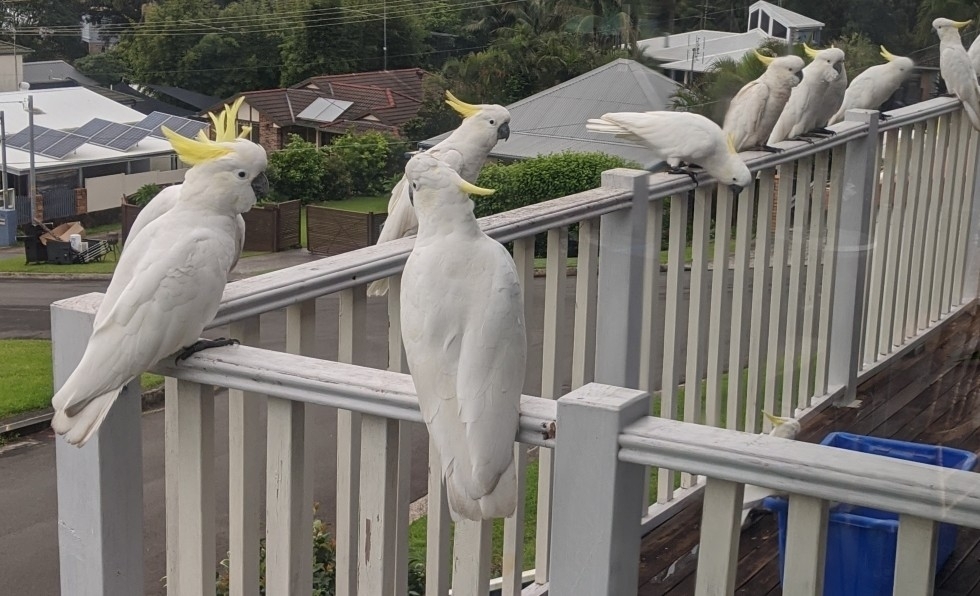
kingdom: Animalia
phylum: Chordata
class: Aves
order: Psittaciformes
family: Psittacidae
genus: Cacatua
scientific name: Cacatua galerita
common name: Sulphur-crested cockatoo
